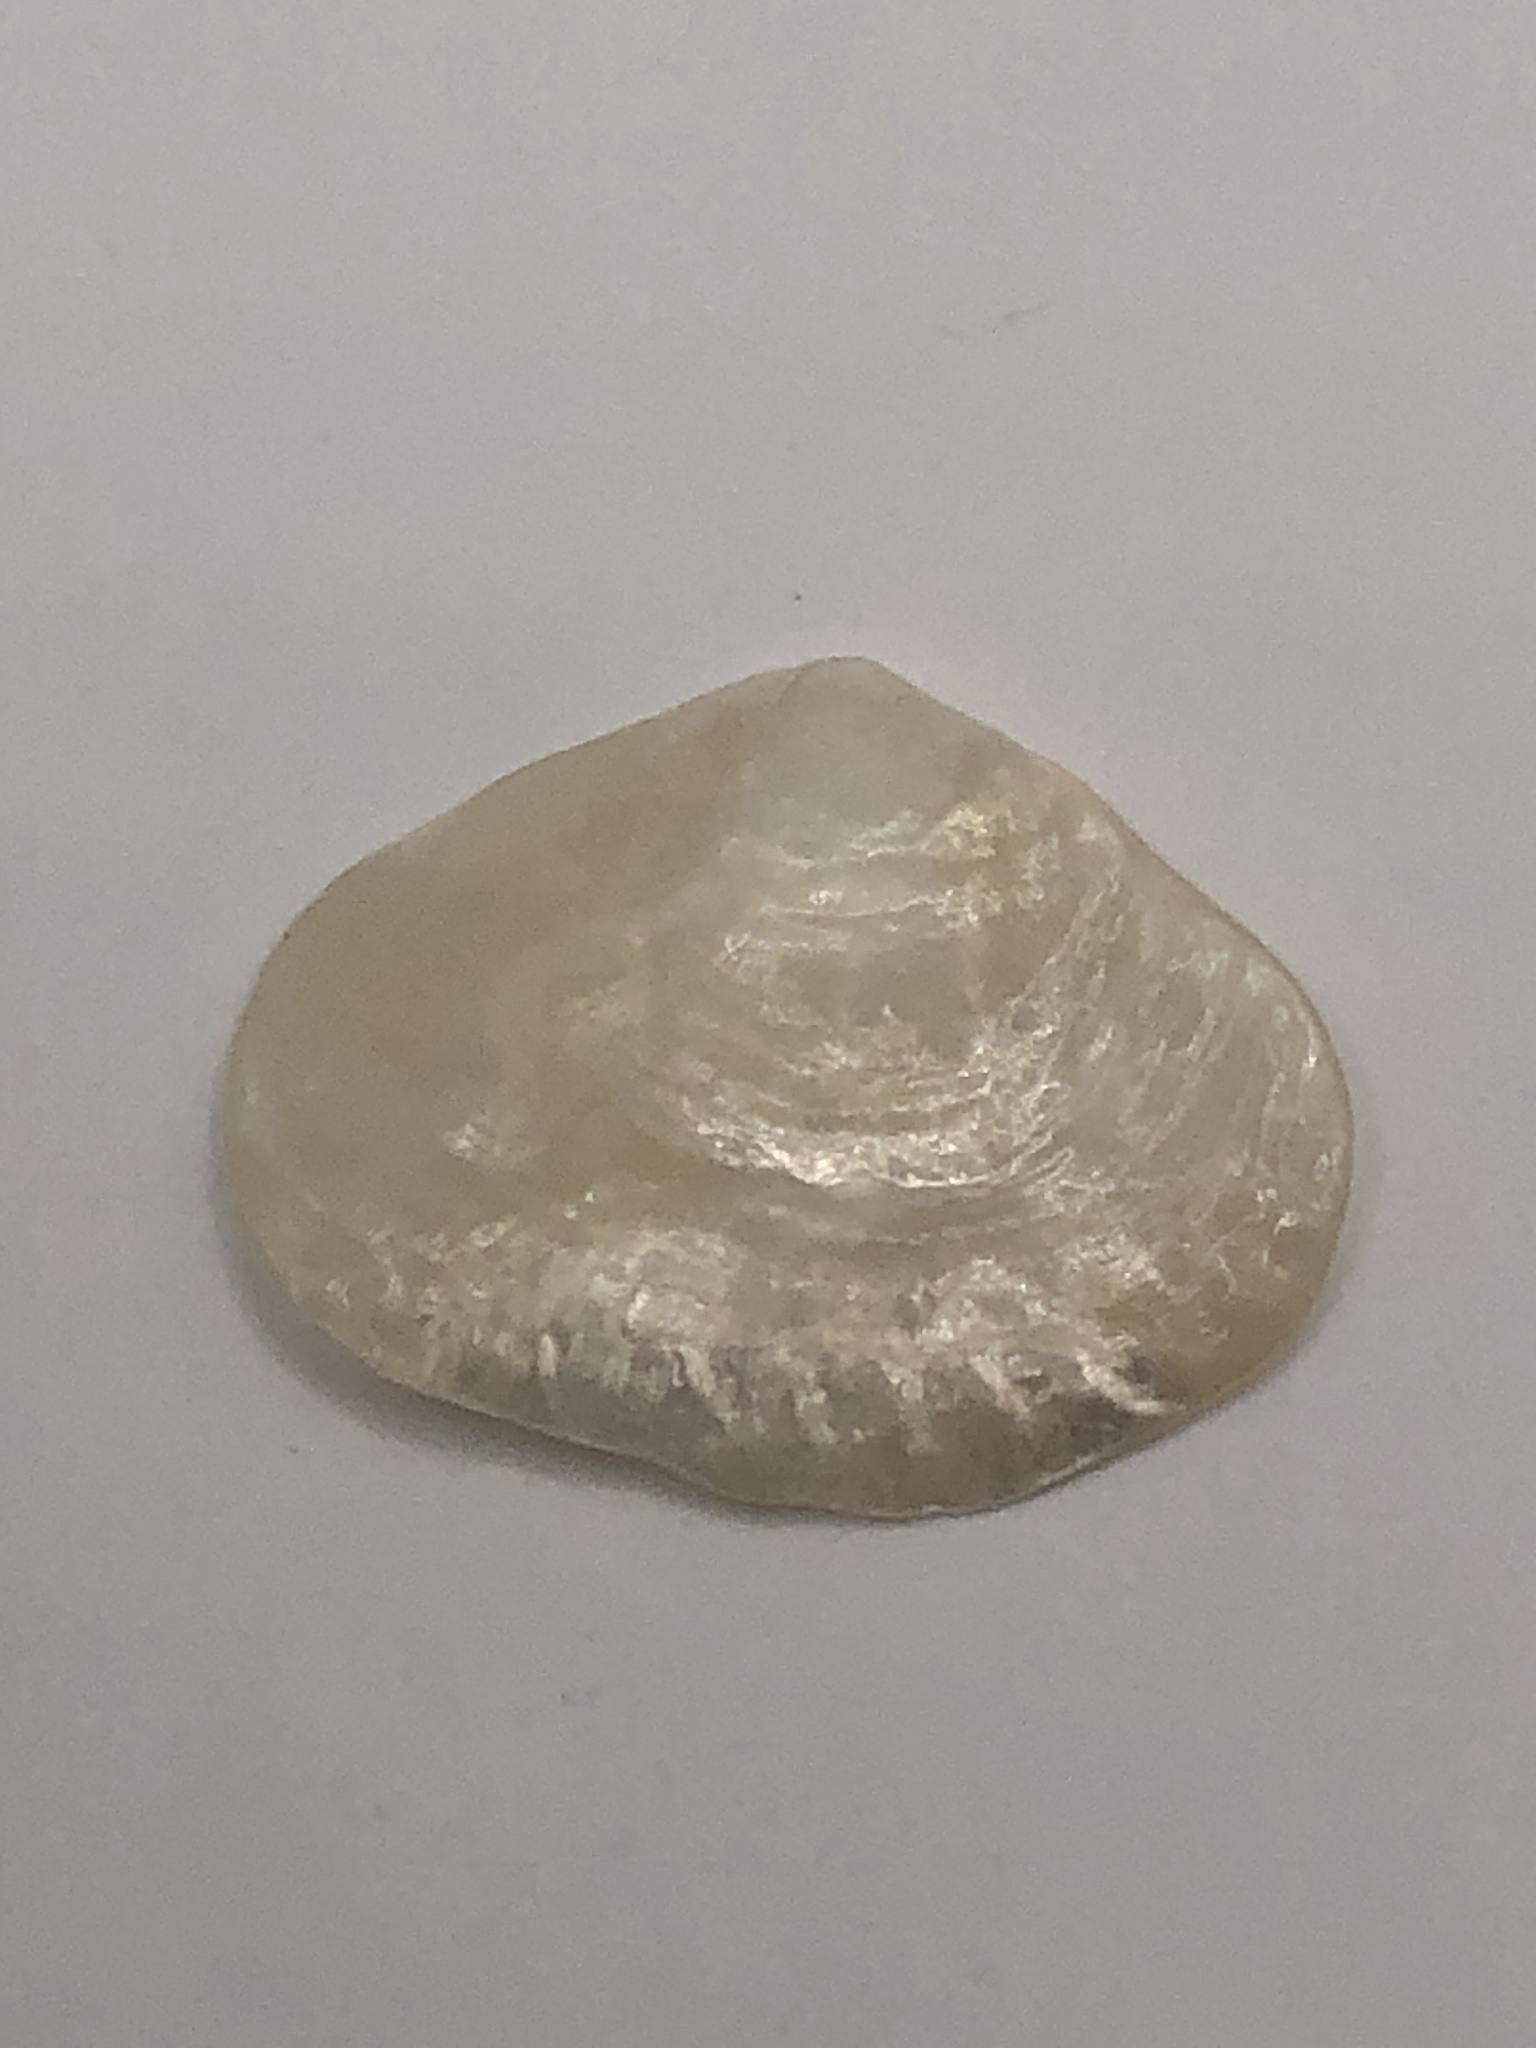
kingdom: Animalia
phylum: Mollusca
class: Bivalvia
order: Pectinida
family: Anomiidae
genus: Anomia
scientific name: Anomia simplex
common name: Common jingle shell
